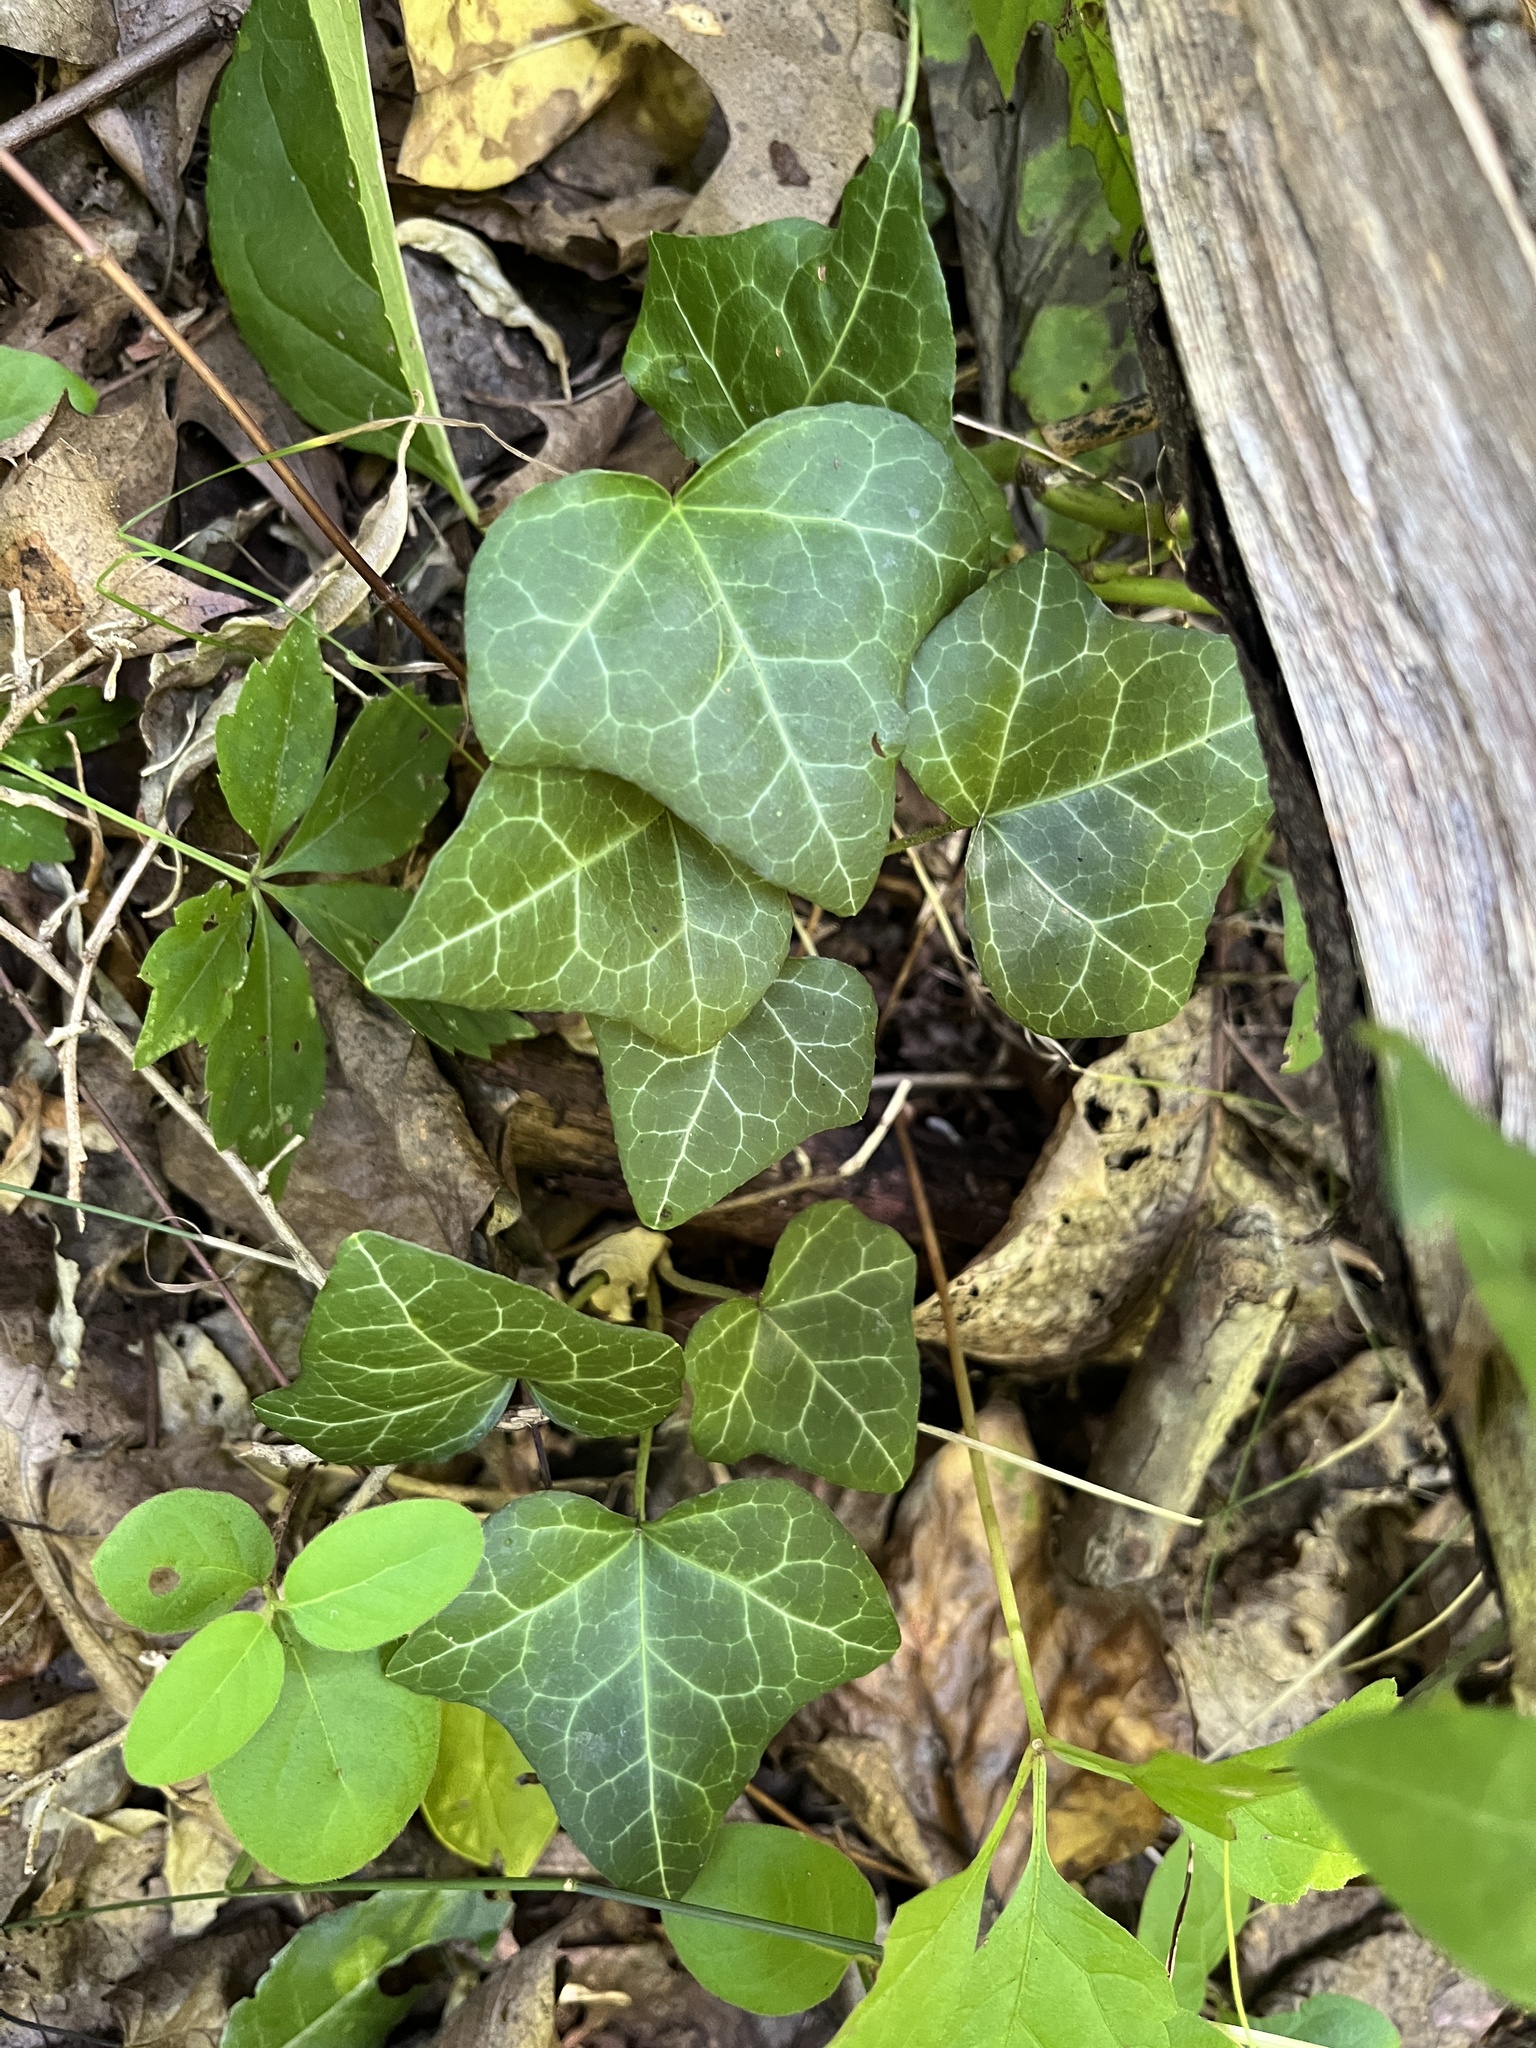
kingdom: Plantae
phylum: Tracheophyta
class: Magnoliopsida
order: Apiales
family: Araliaceae
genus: Hedera
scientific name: Hedera helix
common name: Ivy
